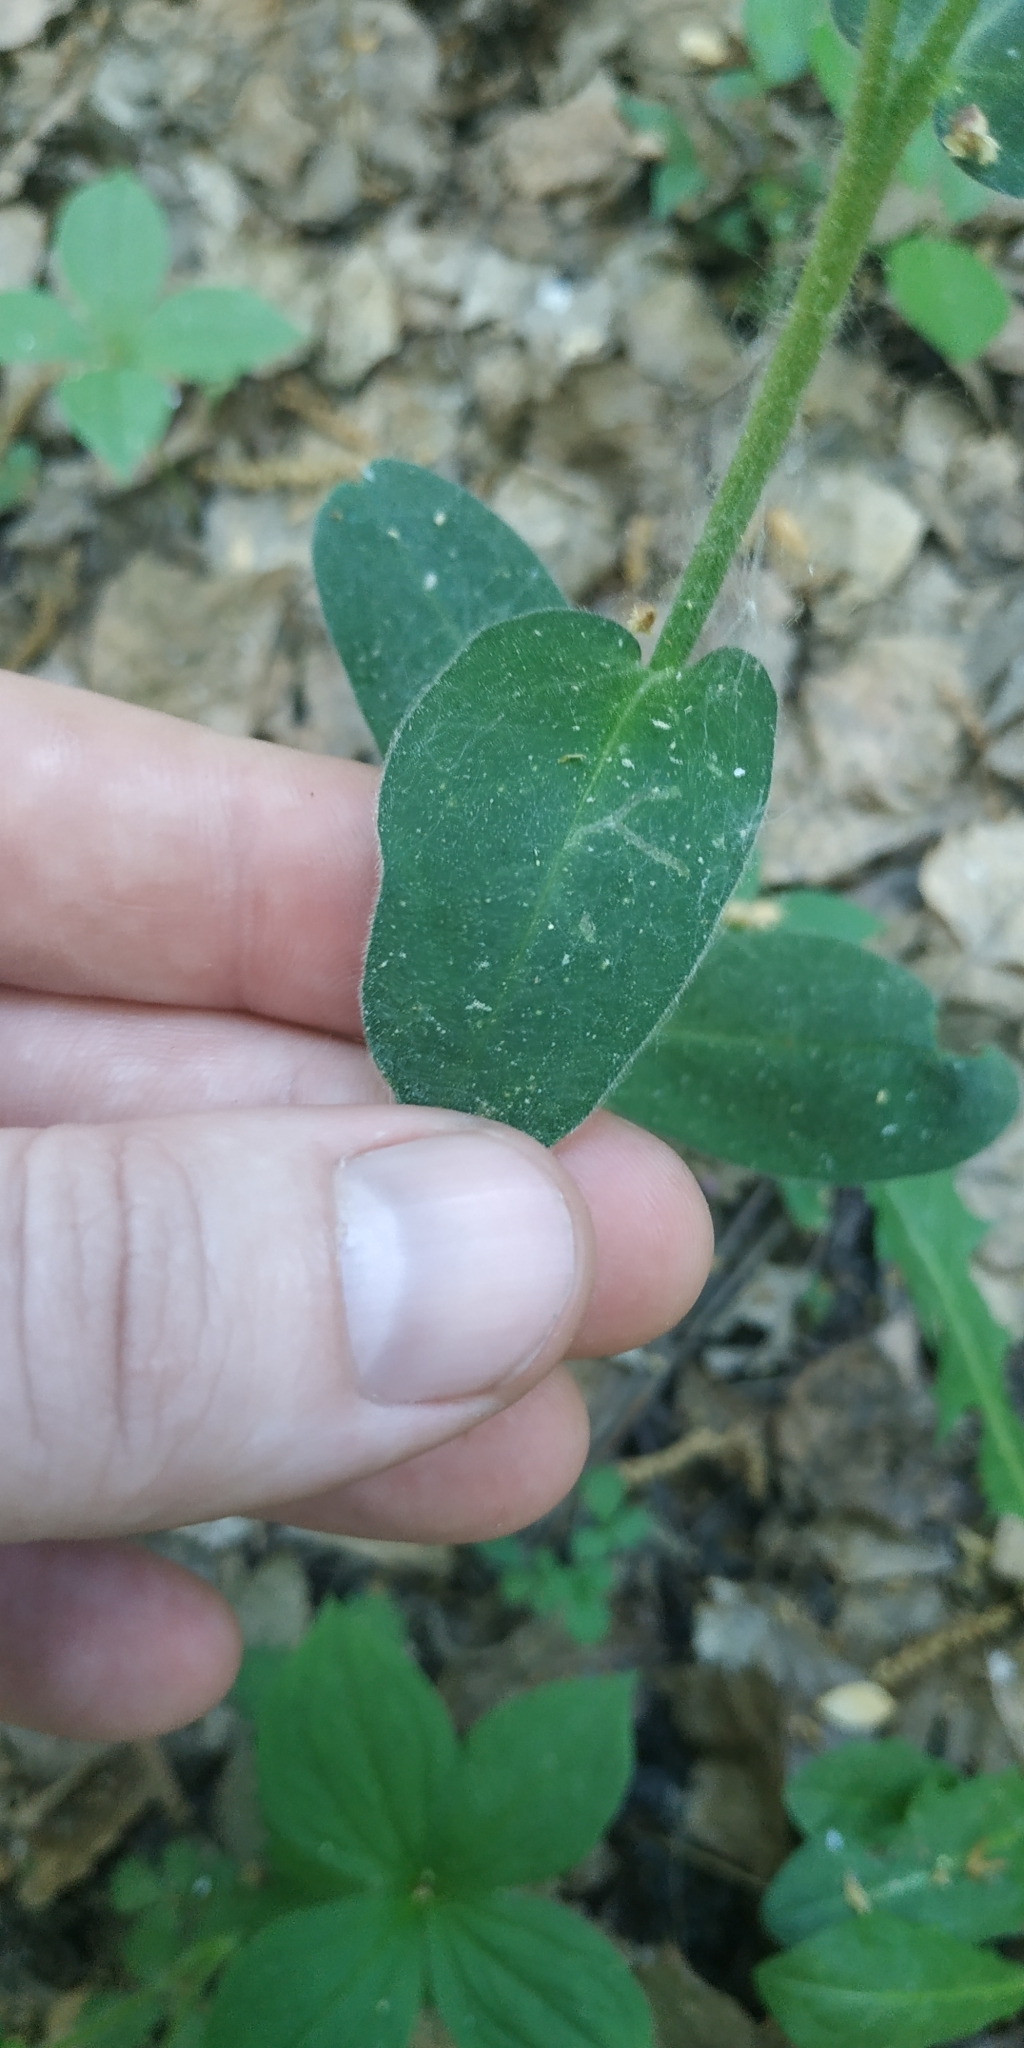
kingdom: Plantae
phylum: Tracheophyta
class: Magnoliopsida
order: Boraginales
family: Boraginaceae
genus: Pulmonaria
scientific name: Pulmonaria mollis
